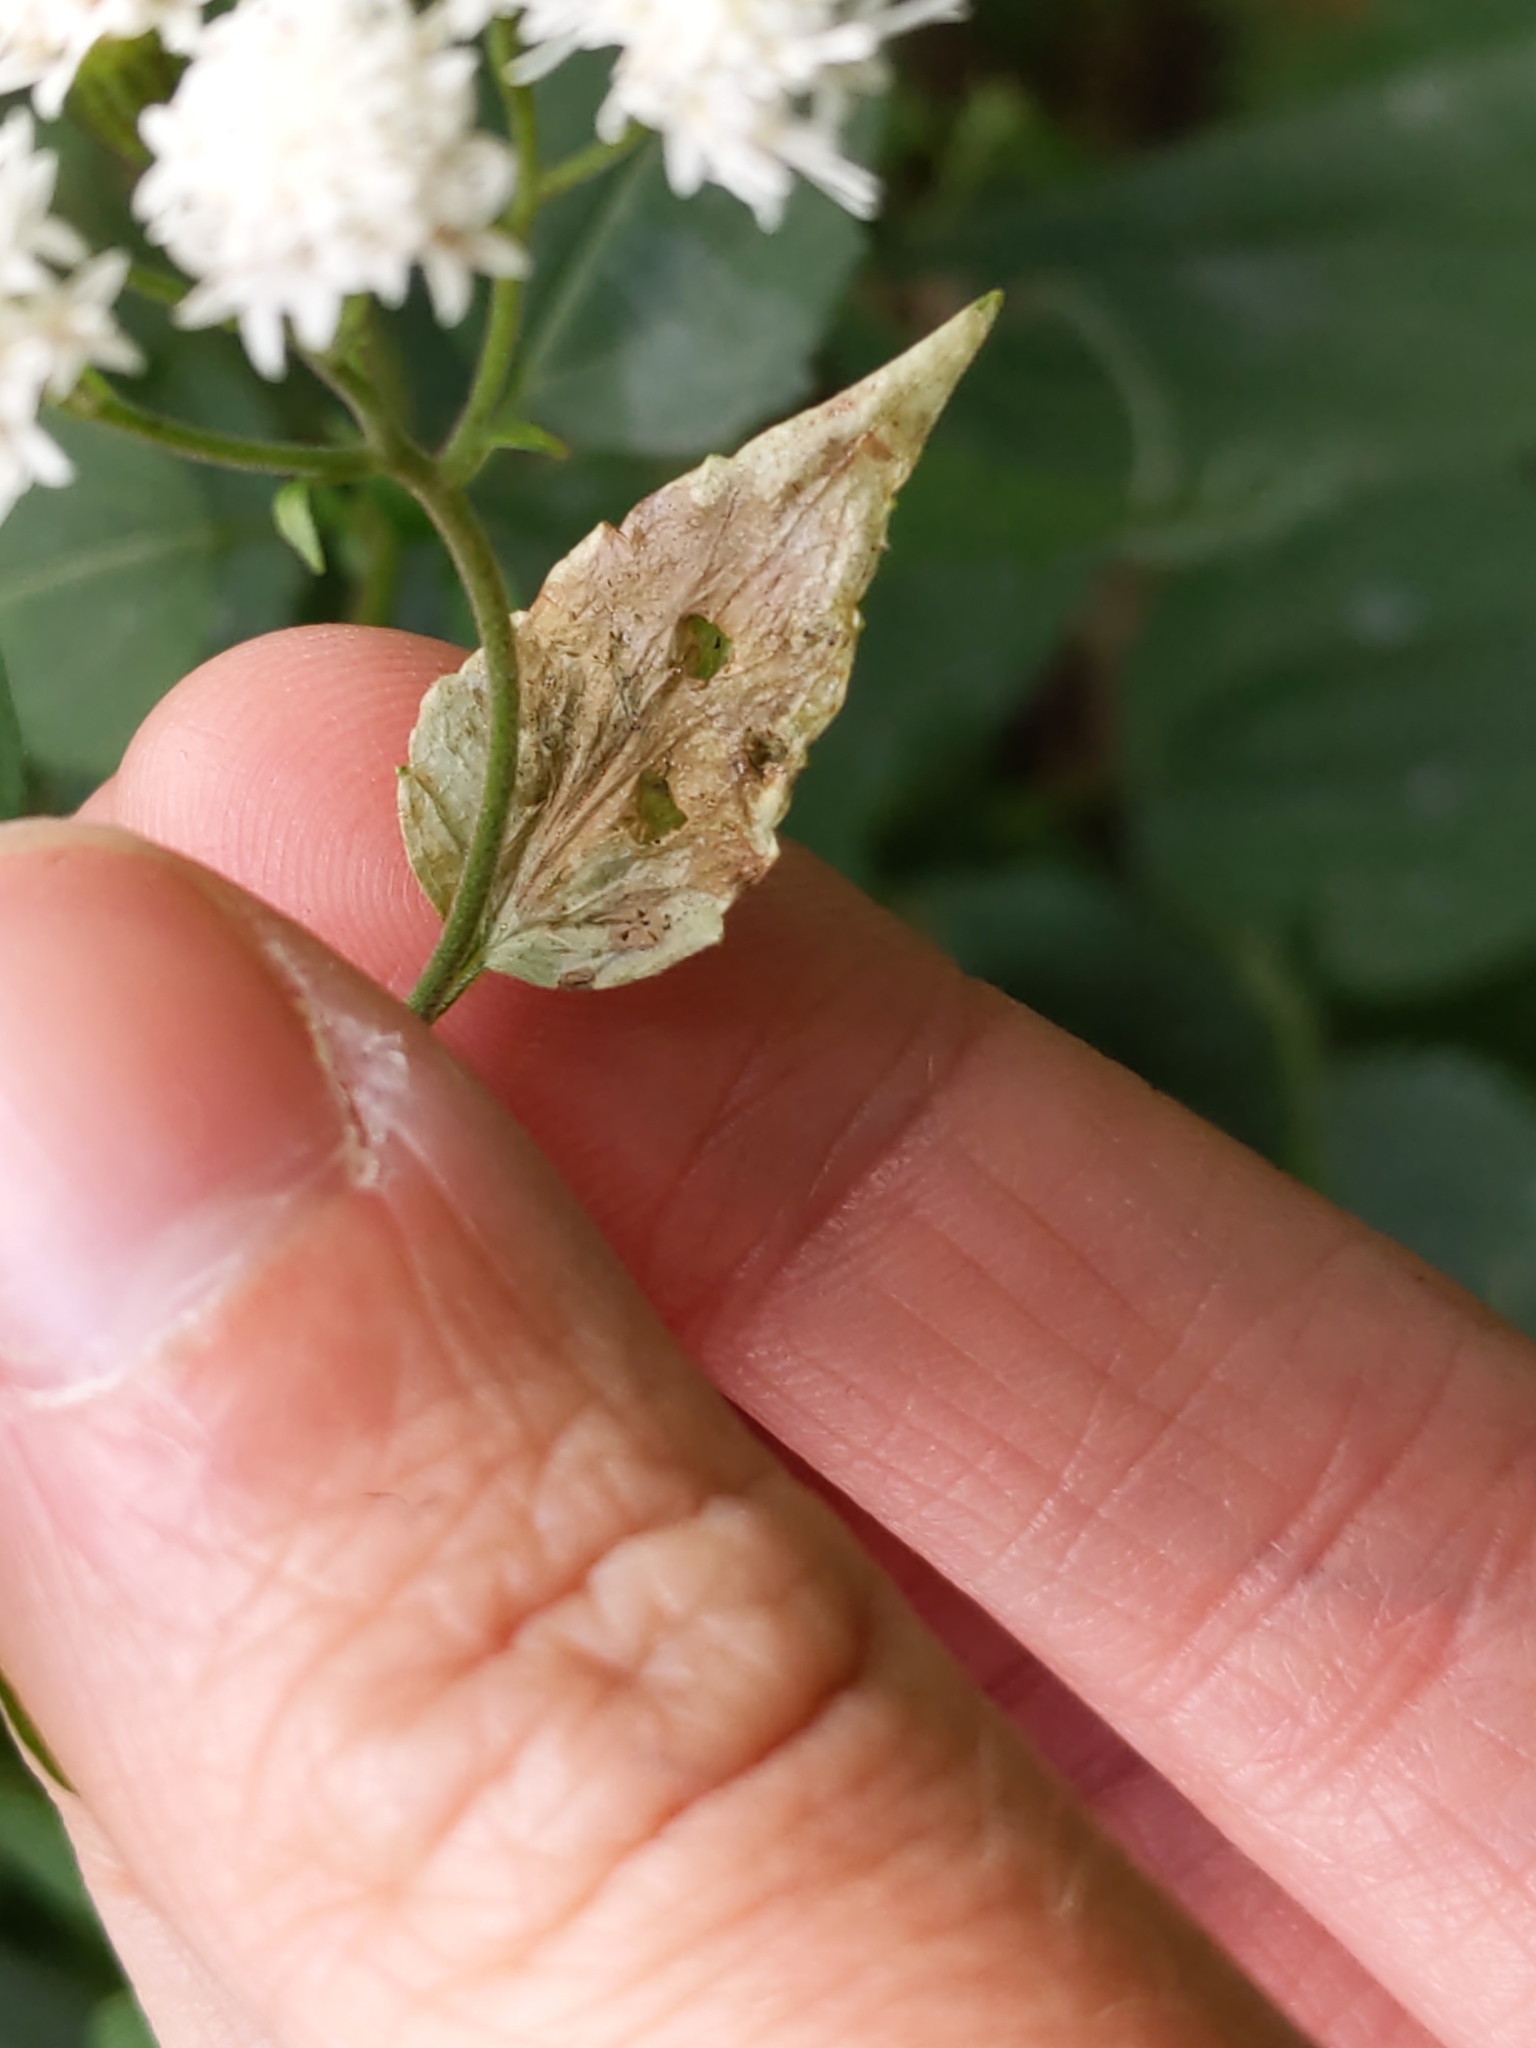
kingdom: Animalia
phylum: Arthropoda
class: Insecta
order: Diptera
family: Agromyzidae
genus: Calycomyza
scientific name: Calycomyza eupatoriphaga
